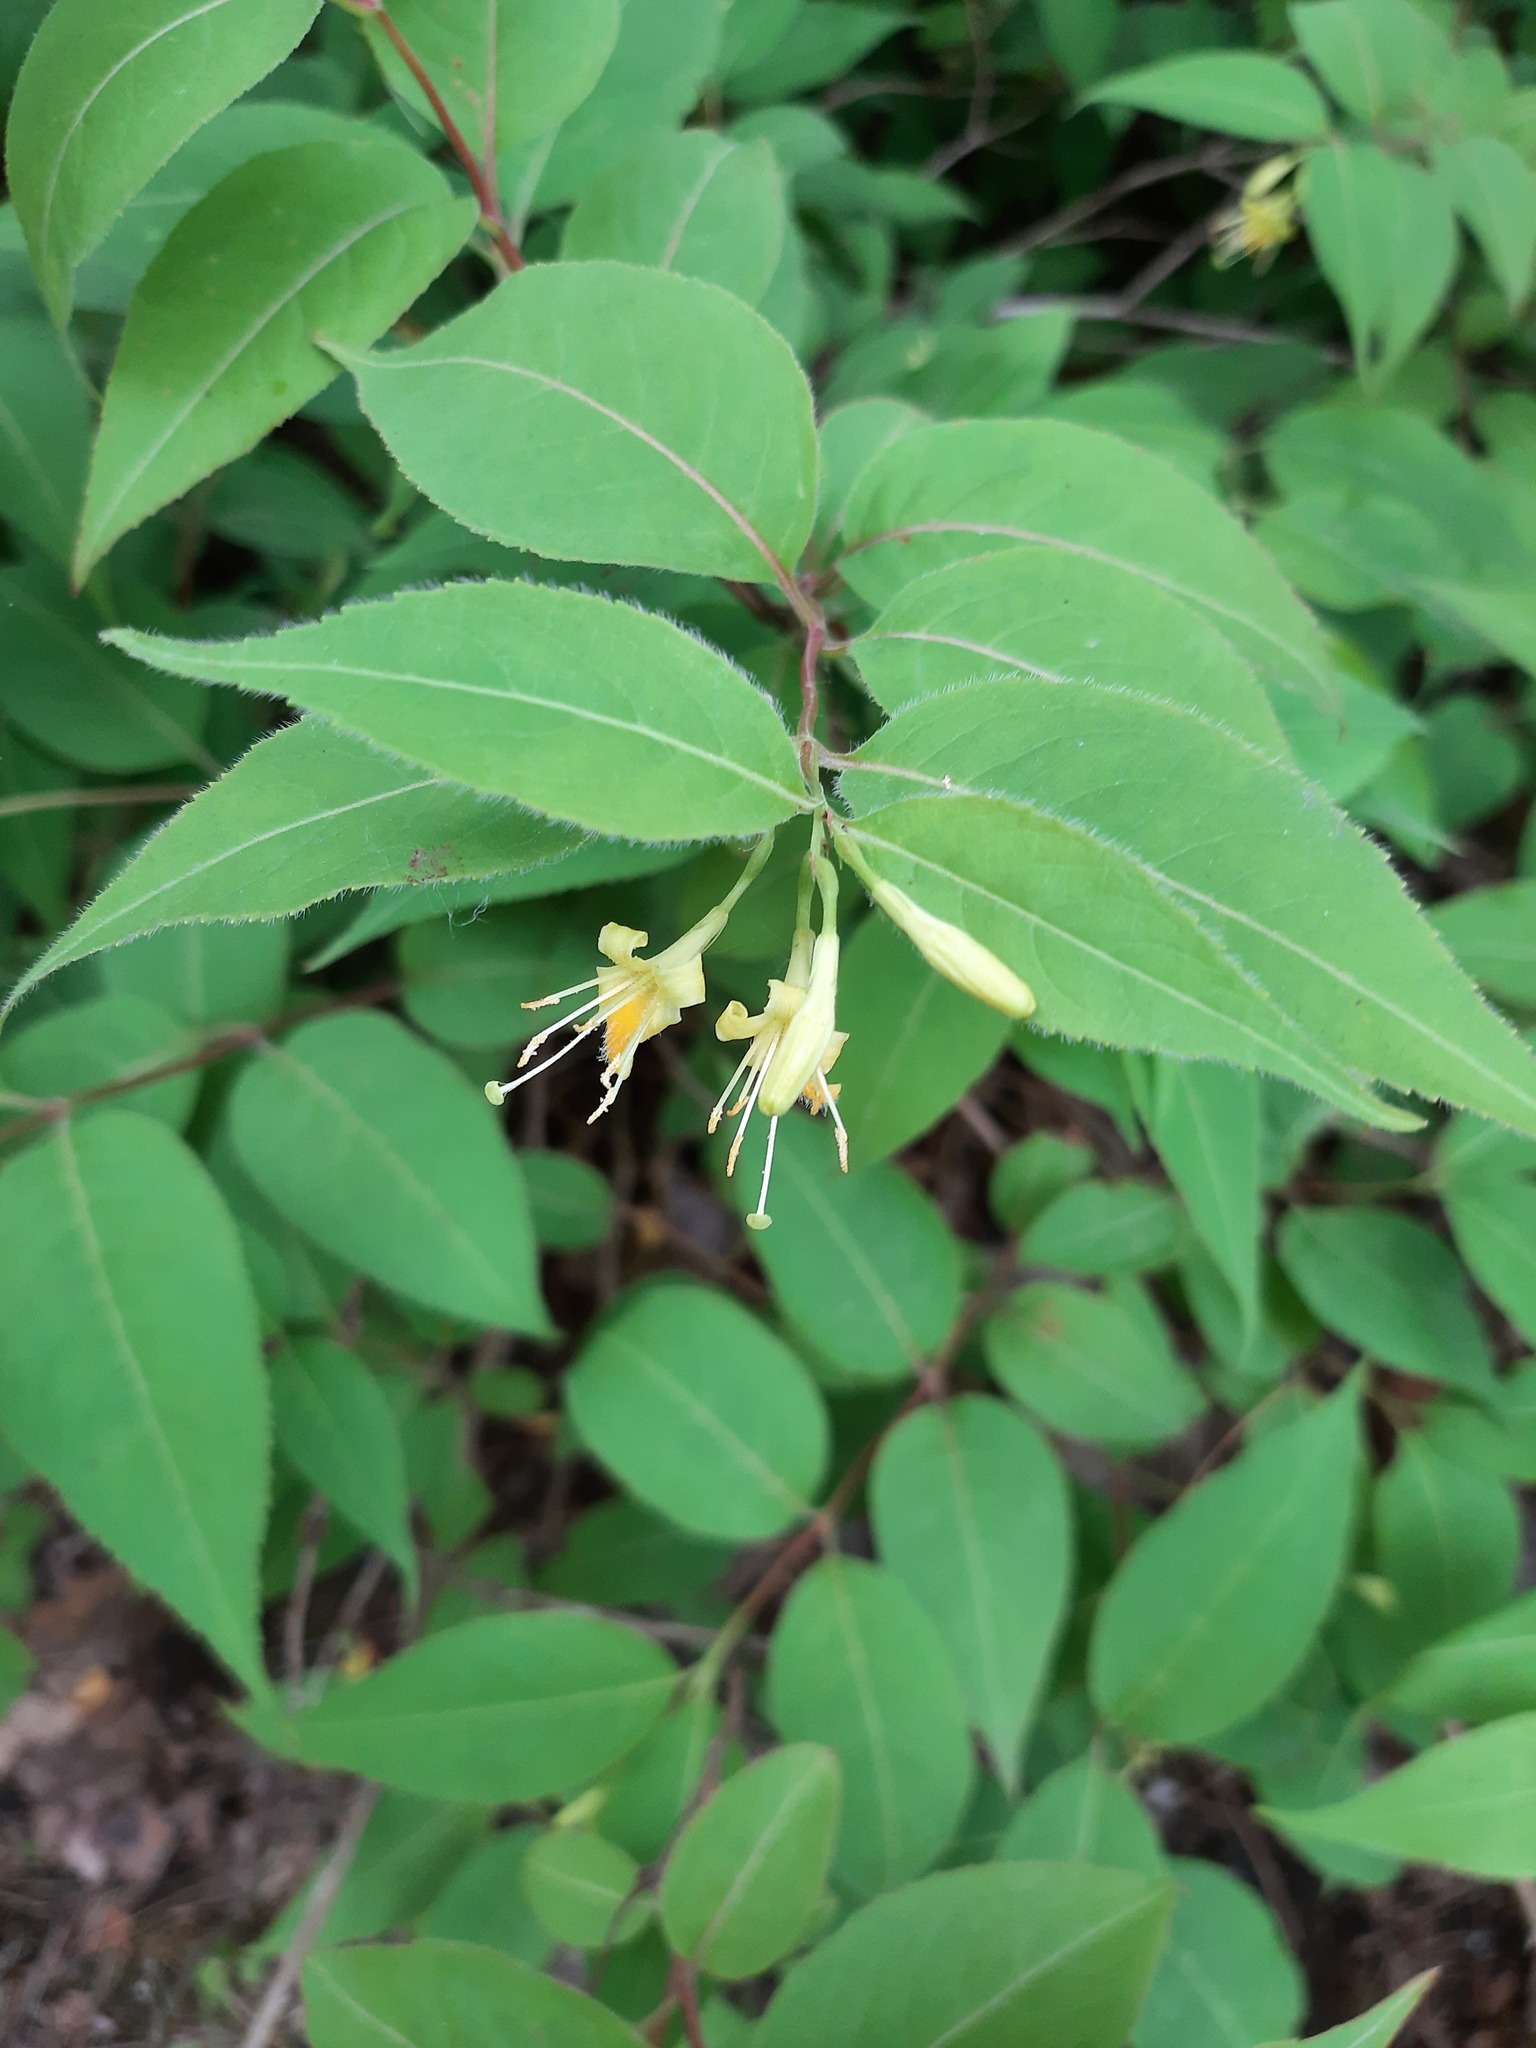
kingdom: Plantae
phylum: Tracheophyta
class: Magnoliopsida
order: Dipsacales
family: Caprifoliaceae
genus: Diervilla
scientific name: Diervilla lonicera
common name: Bush-honeysuckle
